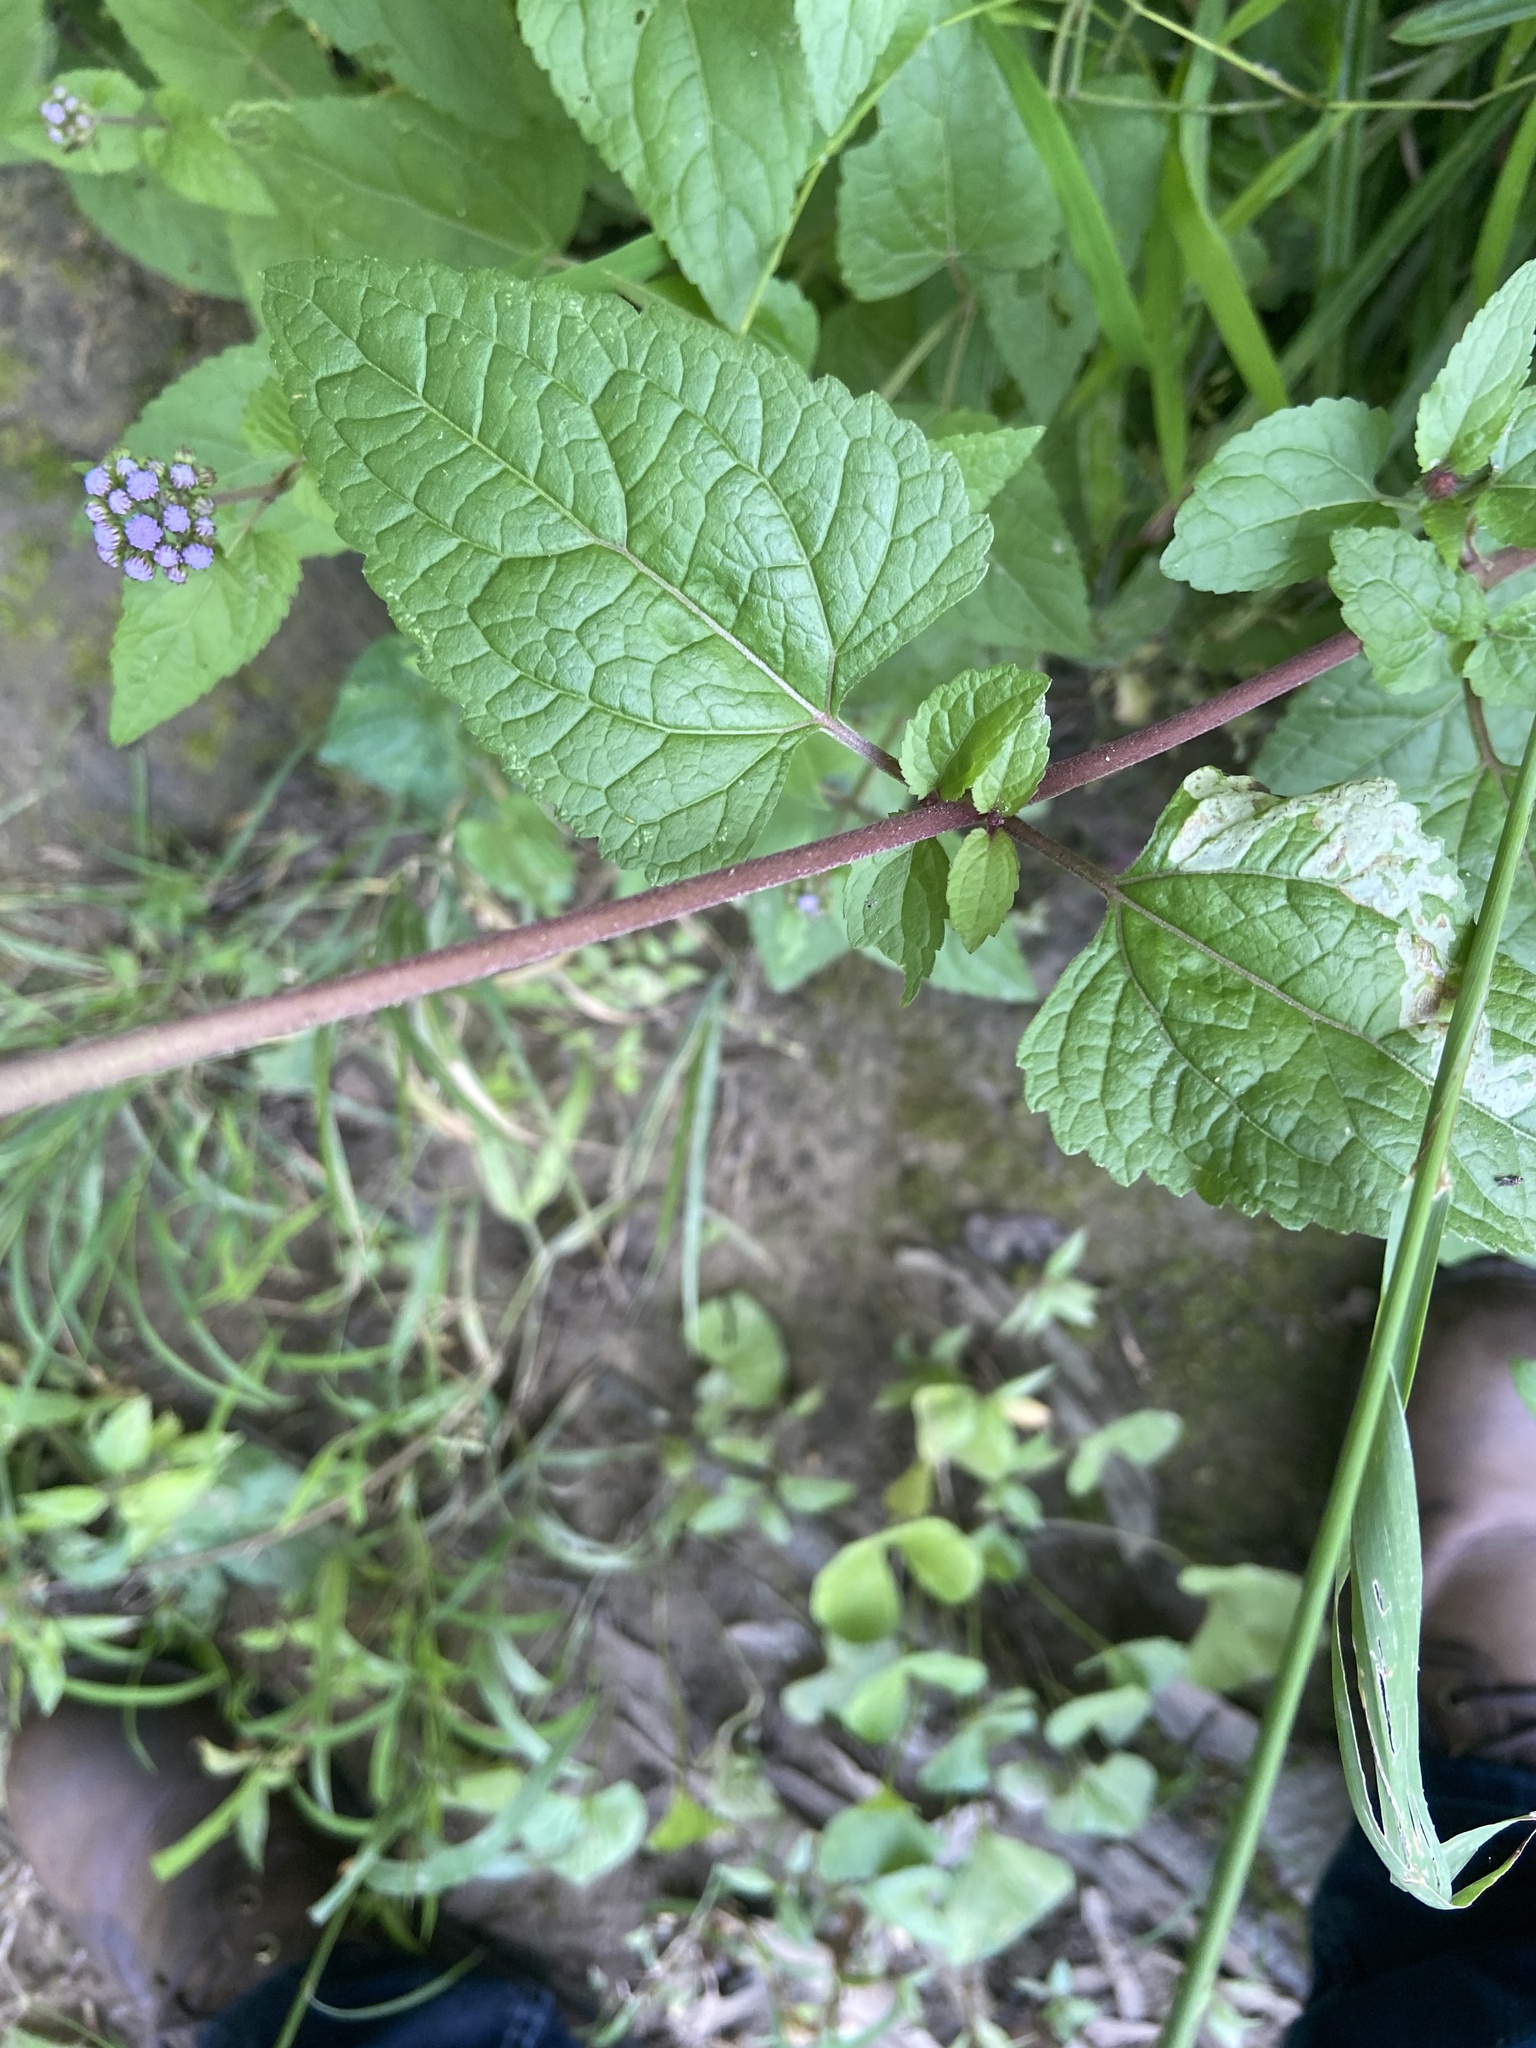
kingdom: Plantae
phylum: Tracheophyta
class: Magnoliopsida
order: Asterales
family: Asteraceae
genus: Conoclinium
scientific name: Conoclinium coelestinum
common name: Blue mistflower
